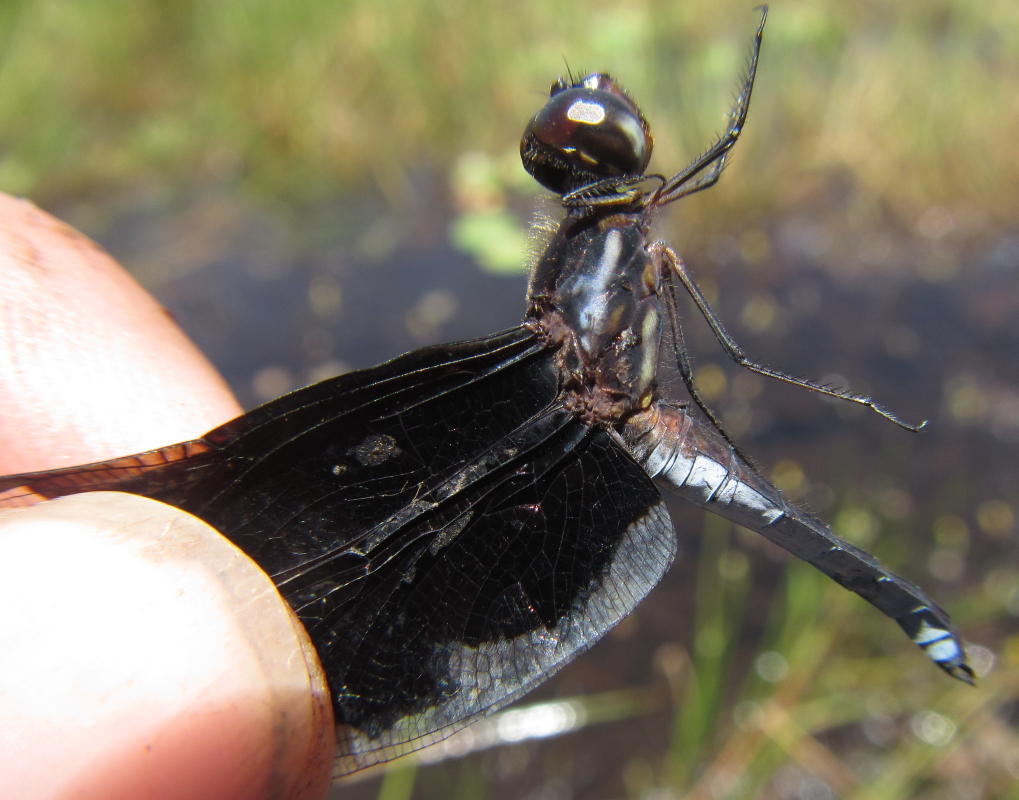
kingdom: Animalia
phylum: Arthropoda
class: Insecta
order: Odonata
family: Libellulidae
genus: Palpopleura
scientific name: Palpopleura lucia
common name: Lucia widow
